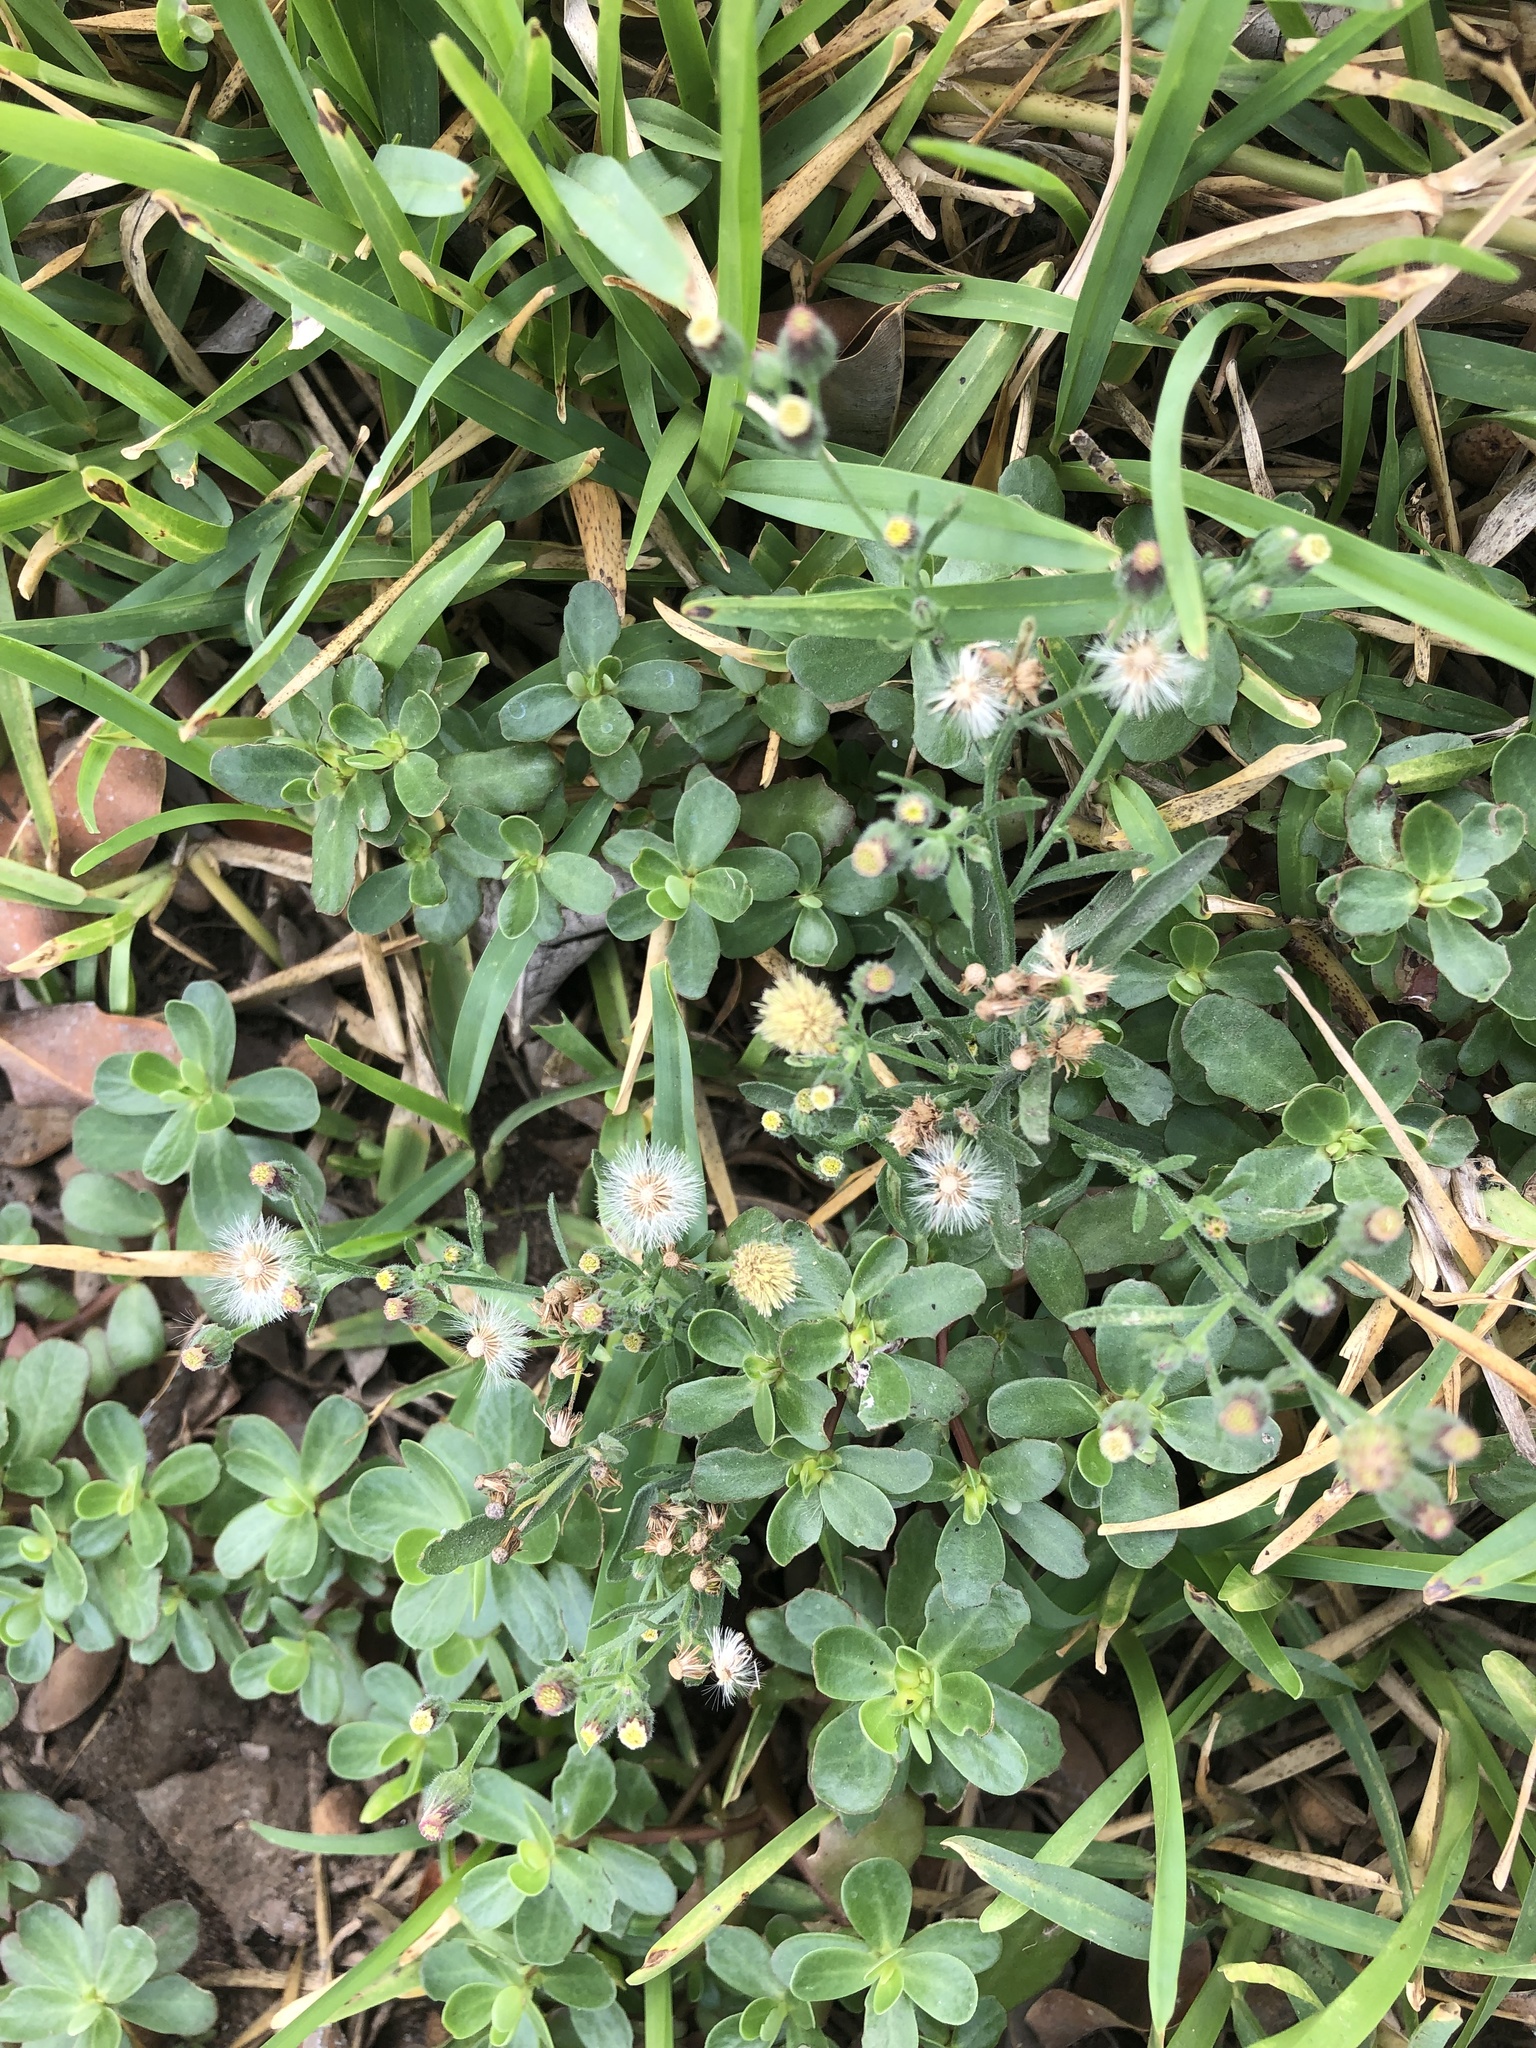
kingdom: Plantae
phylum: Tracheophyta
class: Magnoliopsida
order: Asterales
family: Asteraceae
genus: Erigeron
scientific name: Erigeron bonariensis
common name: Argentine fleabane
